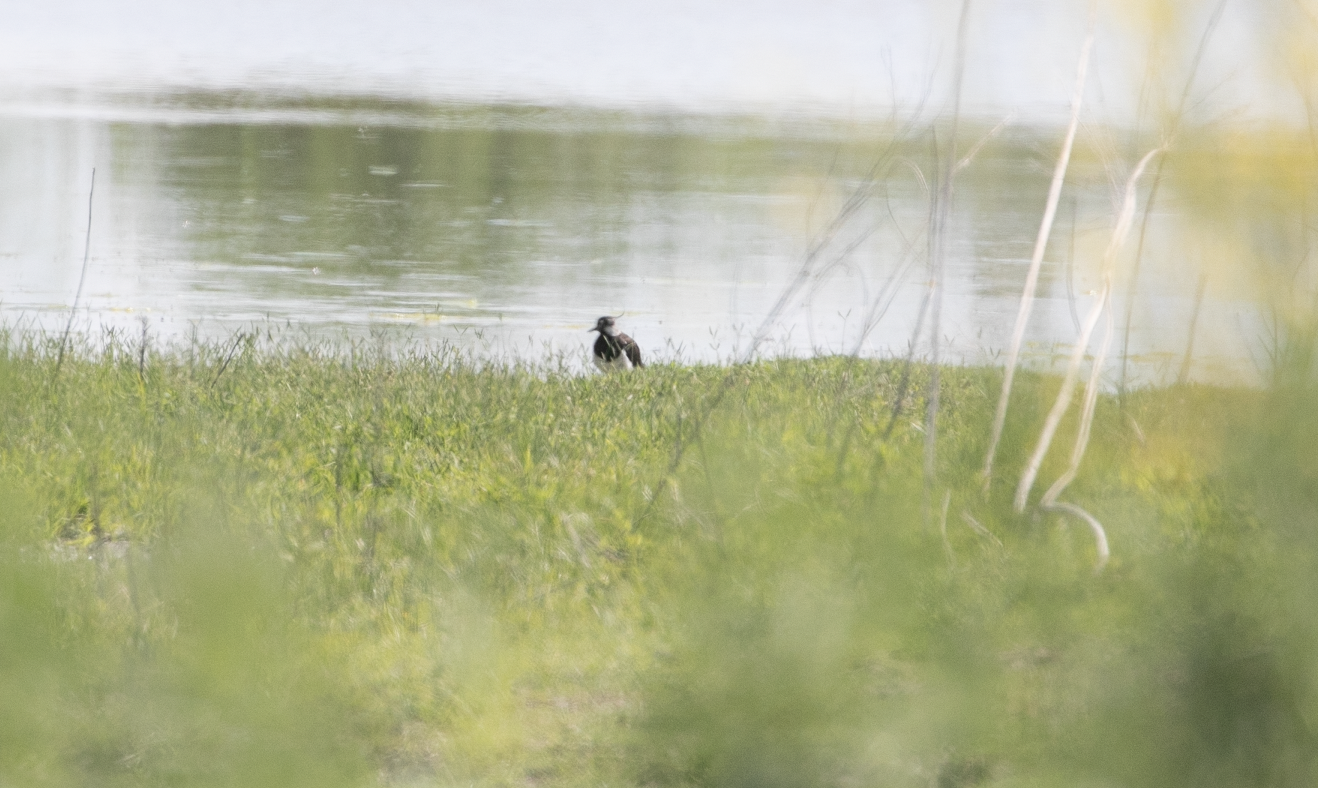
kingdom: Animalia
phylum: Chordata
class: Aves
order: Charadriiformes
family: Charadriidae
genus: Vanellus
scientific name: Vanellus vanellus
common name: Northern lapwing
